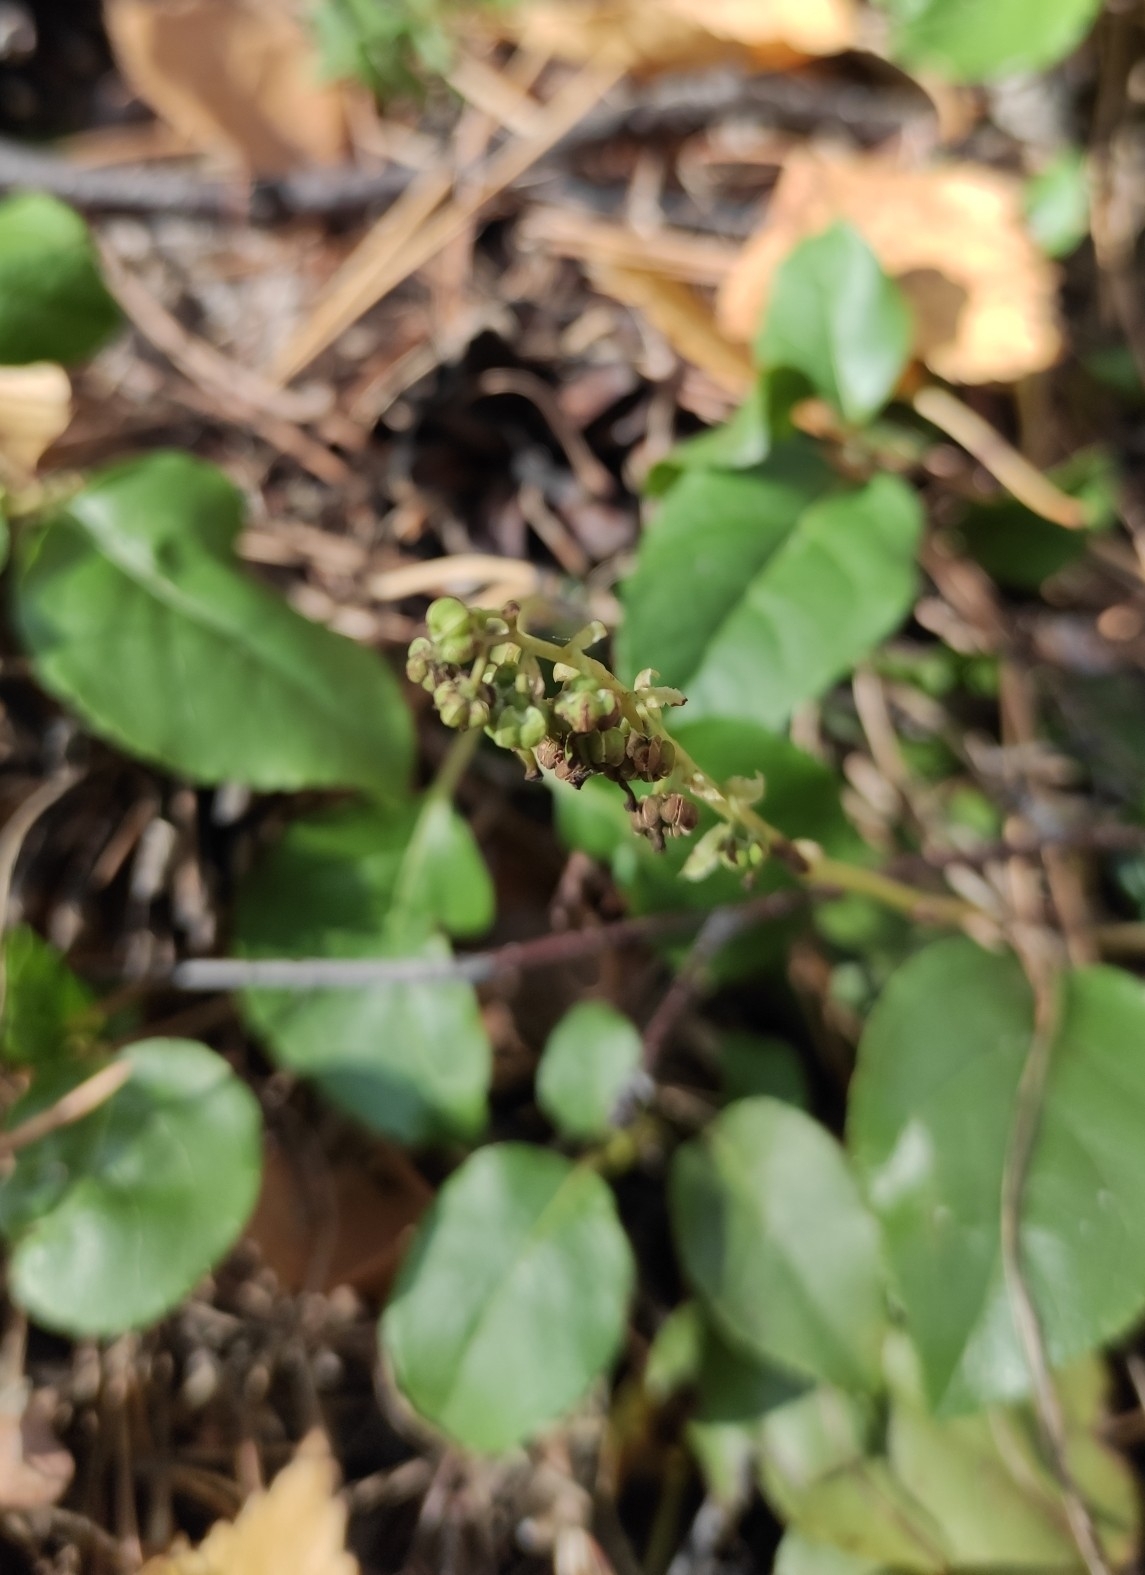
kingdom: Plantae
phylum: Tracheophyta
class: Magnoliopsida
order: Ericales
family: Ericaceae
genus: Orthilia
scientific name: Orthilia secunda
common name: One-sided orthilia
